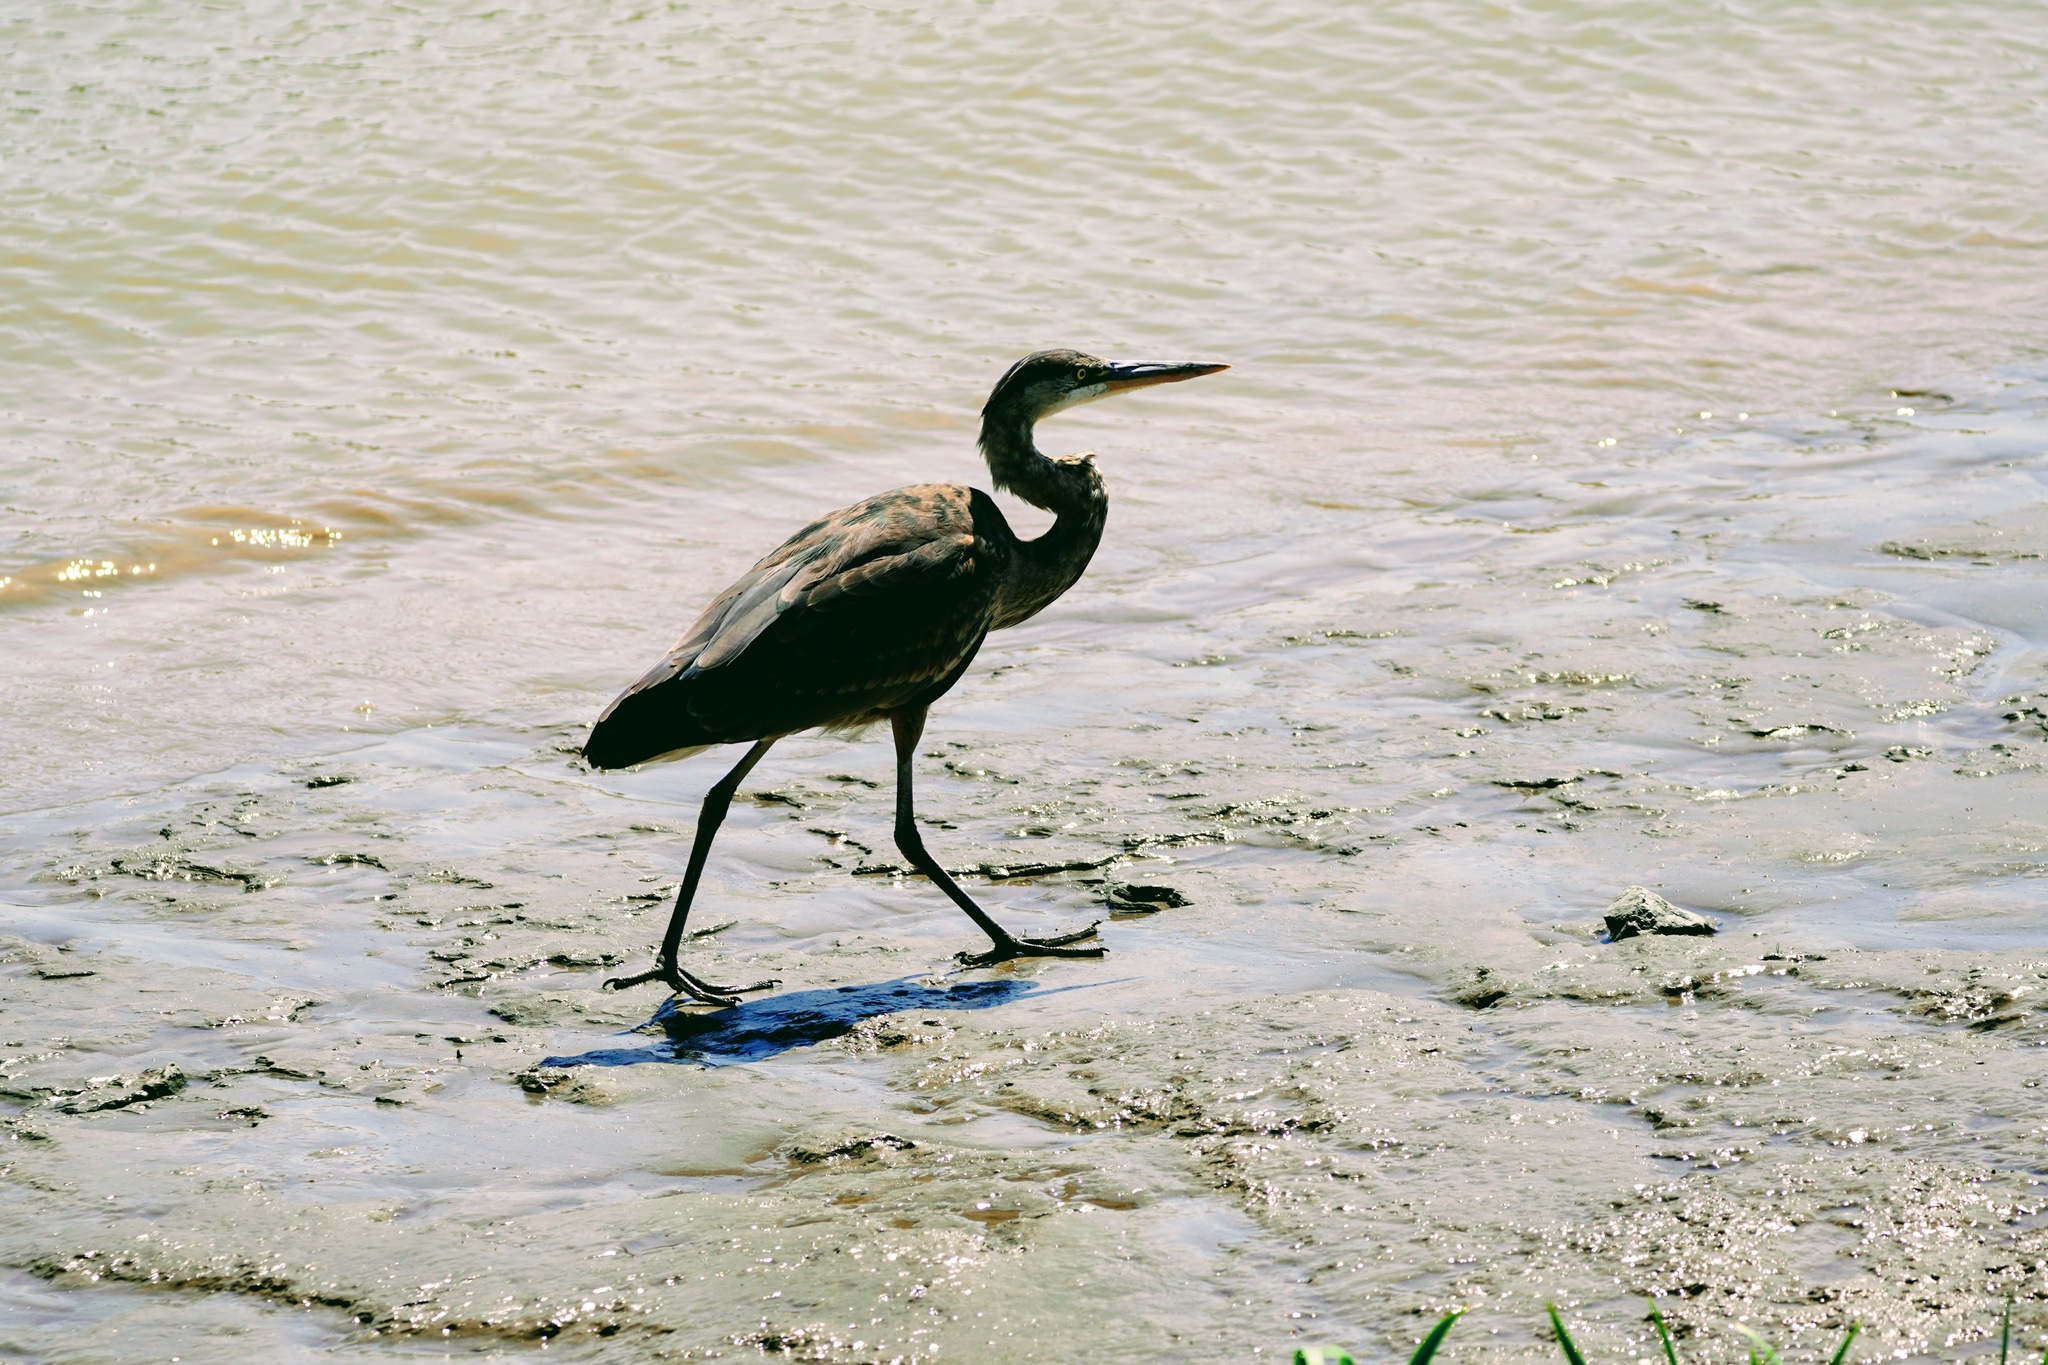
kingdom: Animalia
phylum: Chordata
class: Aves
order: Pelecaniformes
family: Ardeidae
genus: Ardea
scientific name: Ardea herodias
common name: Great blue heron
